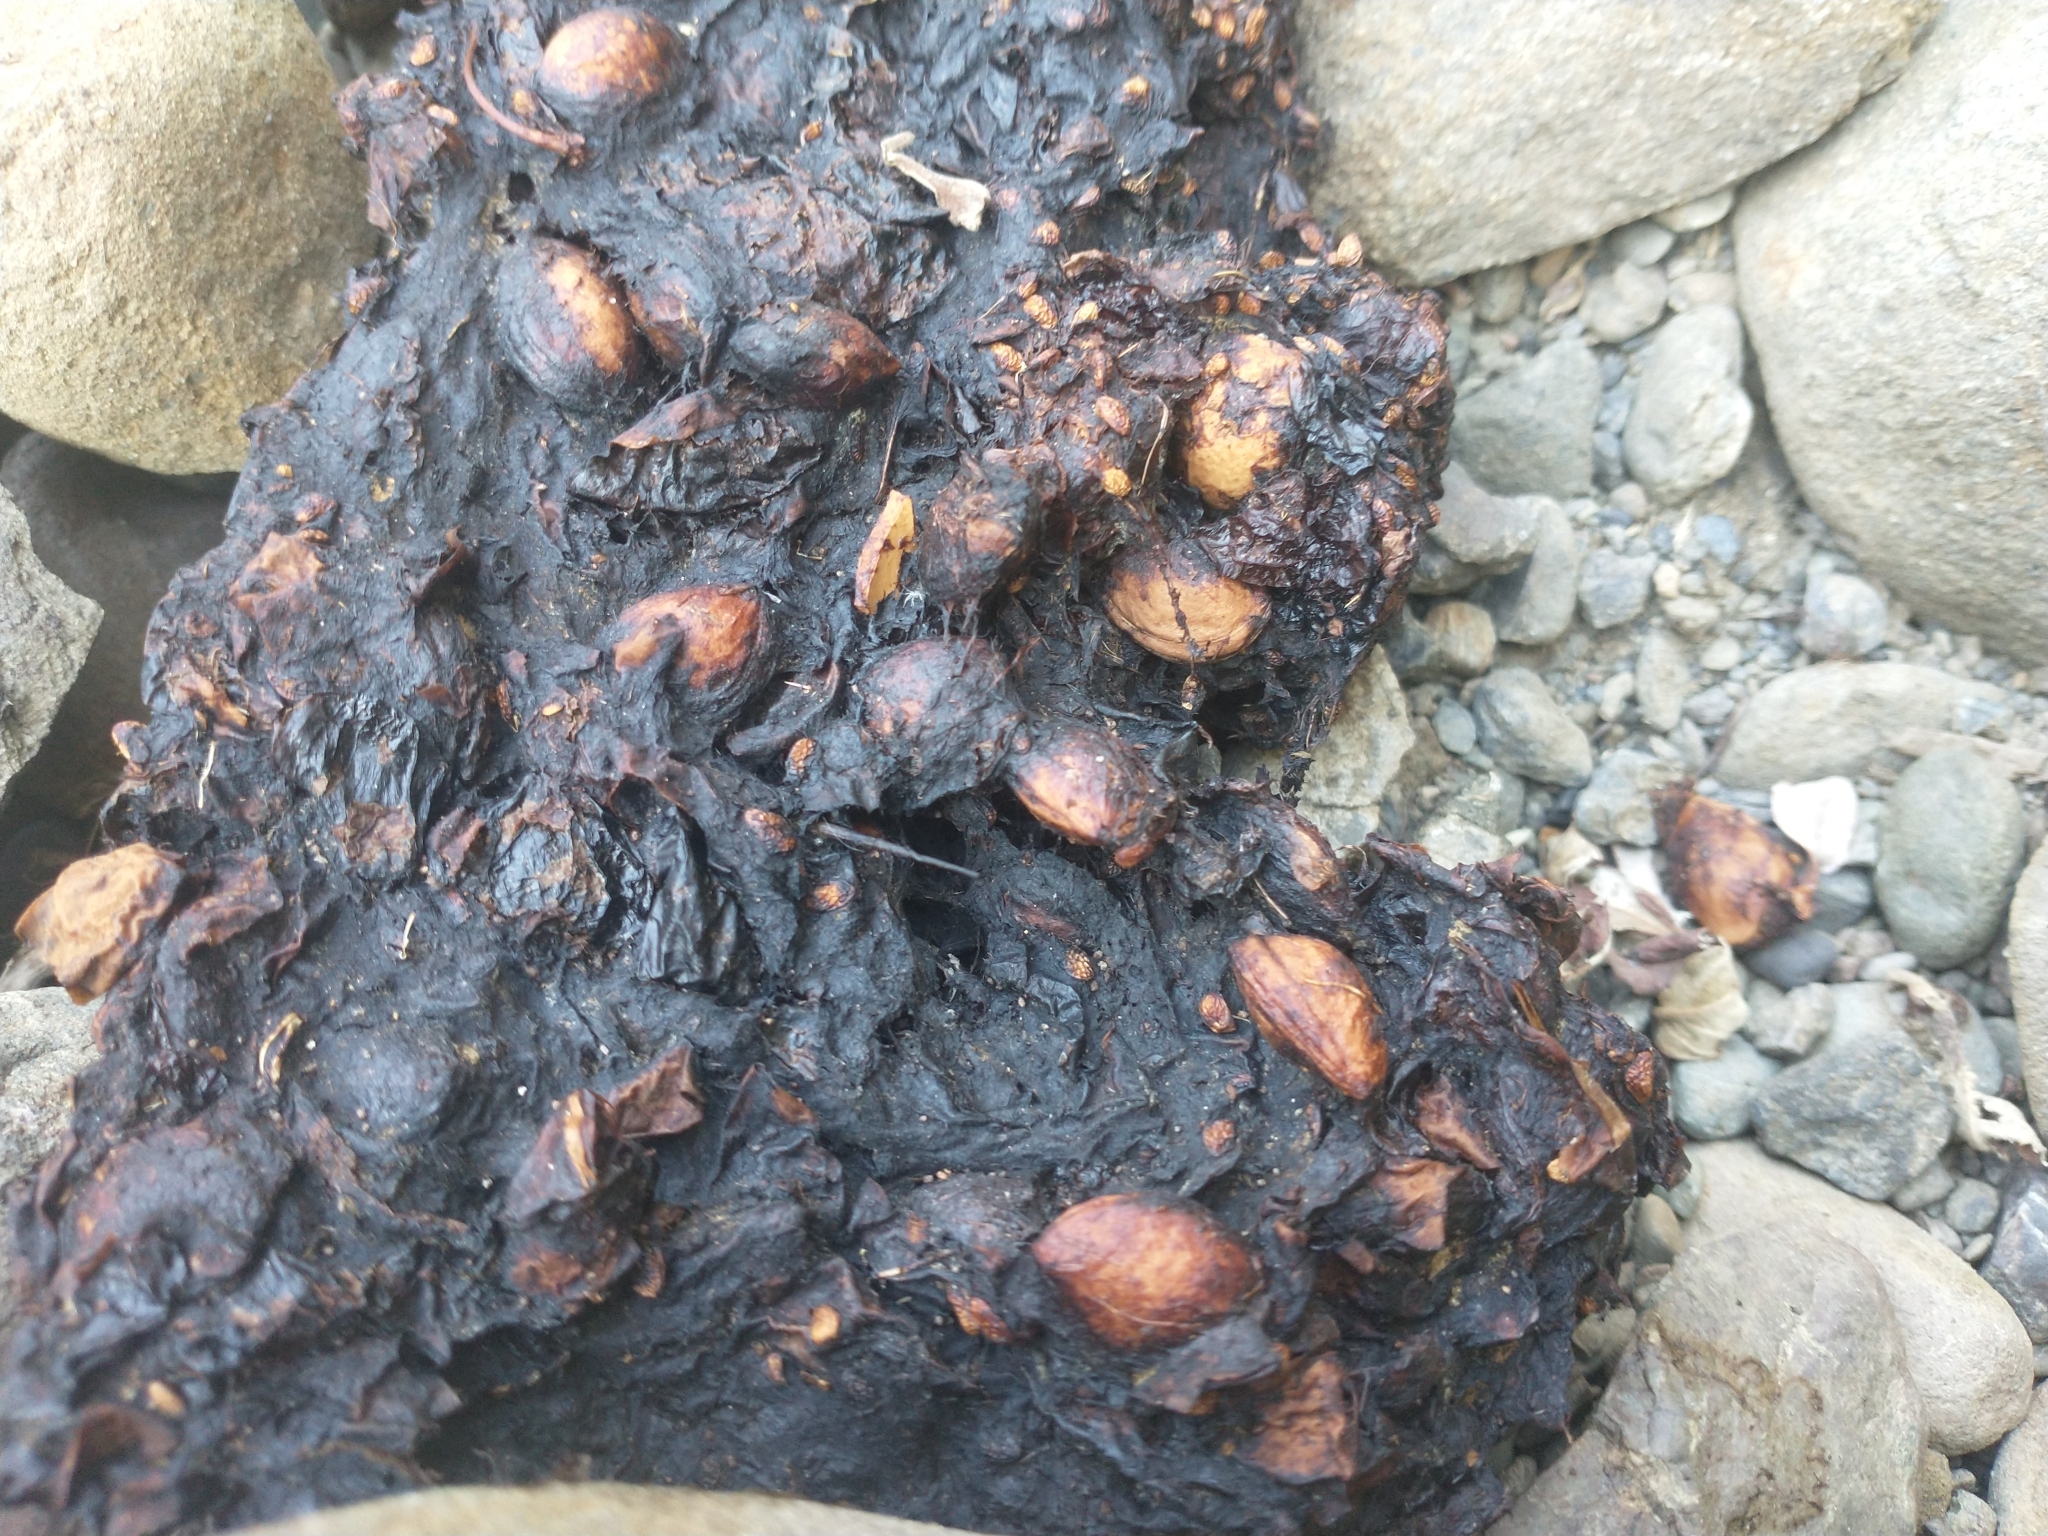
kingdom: Animalia
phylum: Chordata
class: Mammalia
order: Carnivora
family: Ursidae
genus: Ursus
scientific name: Ursus americanus
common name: American black bear
